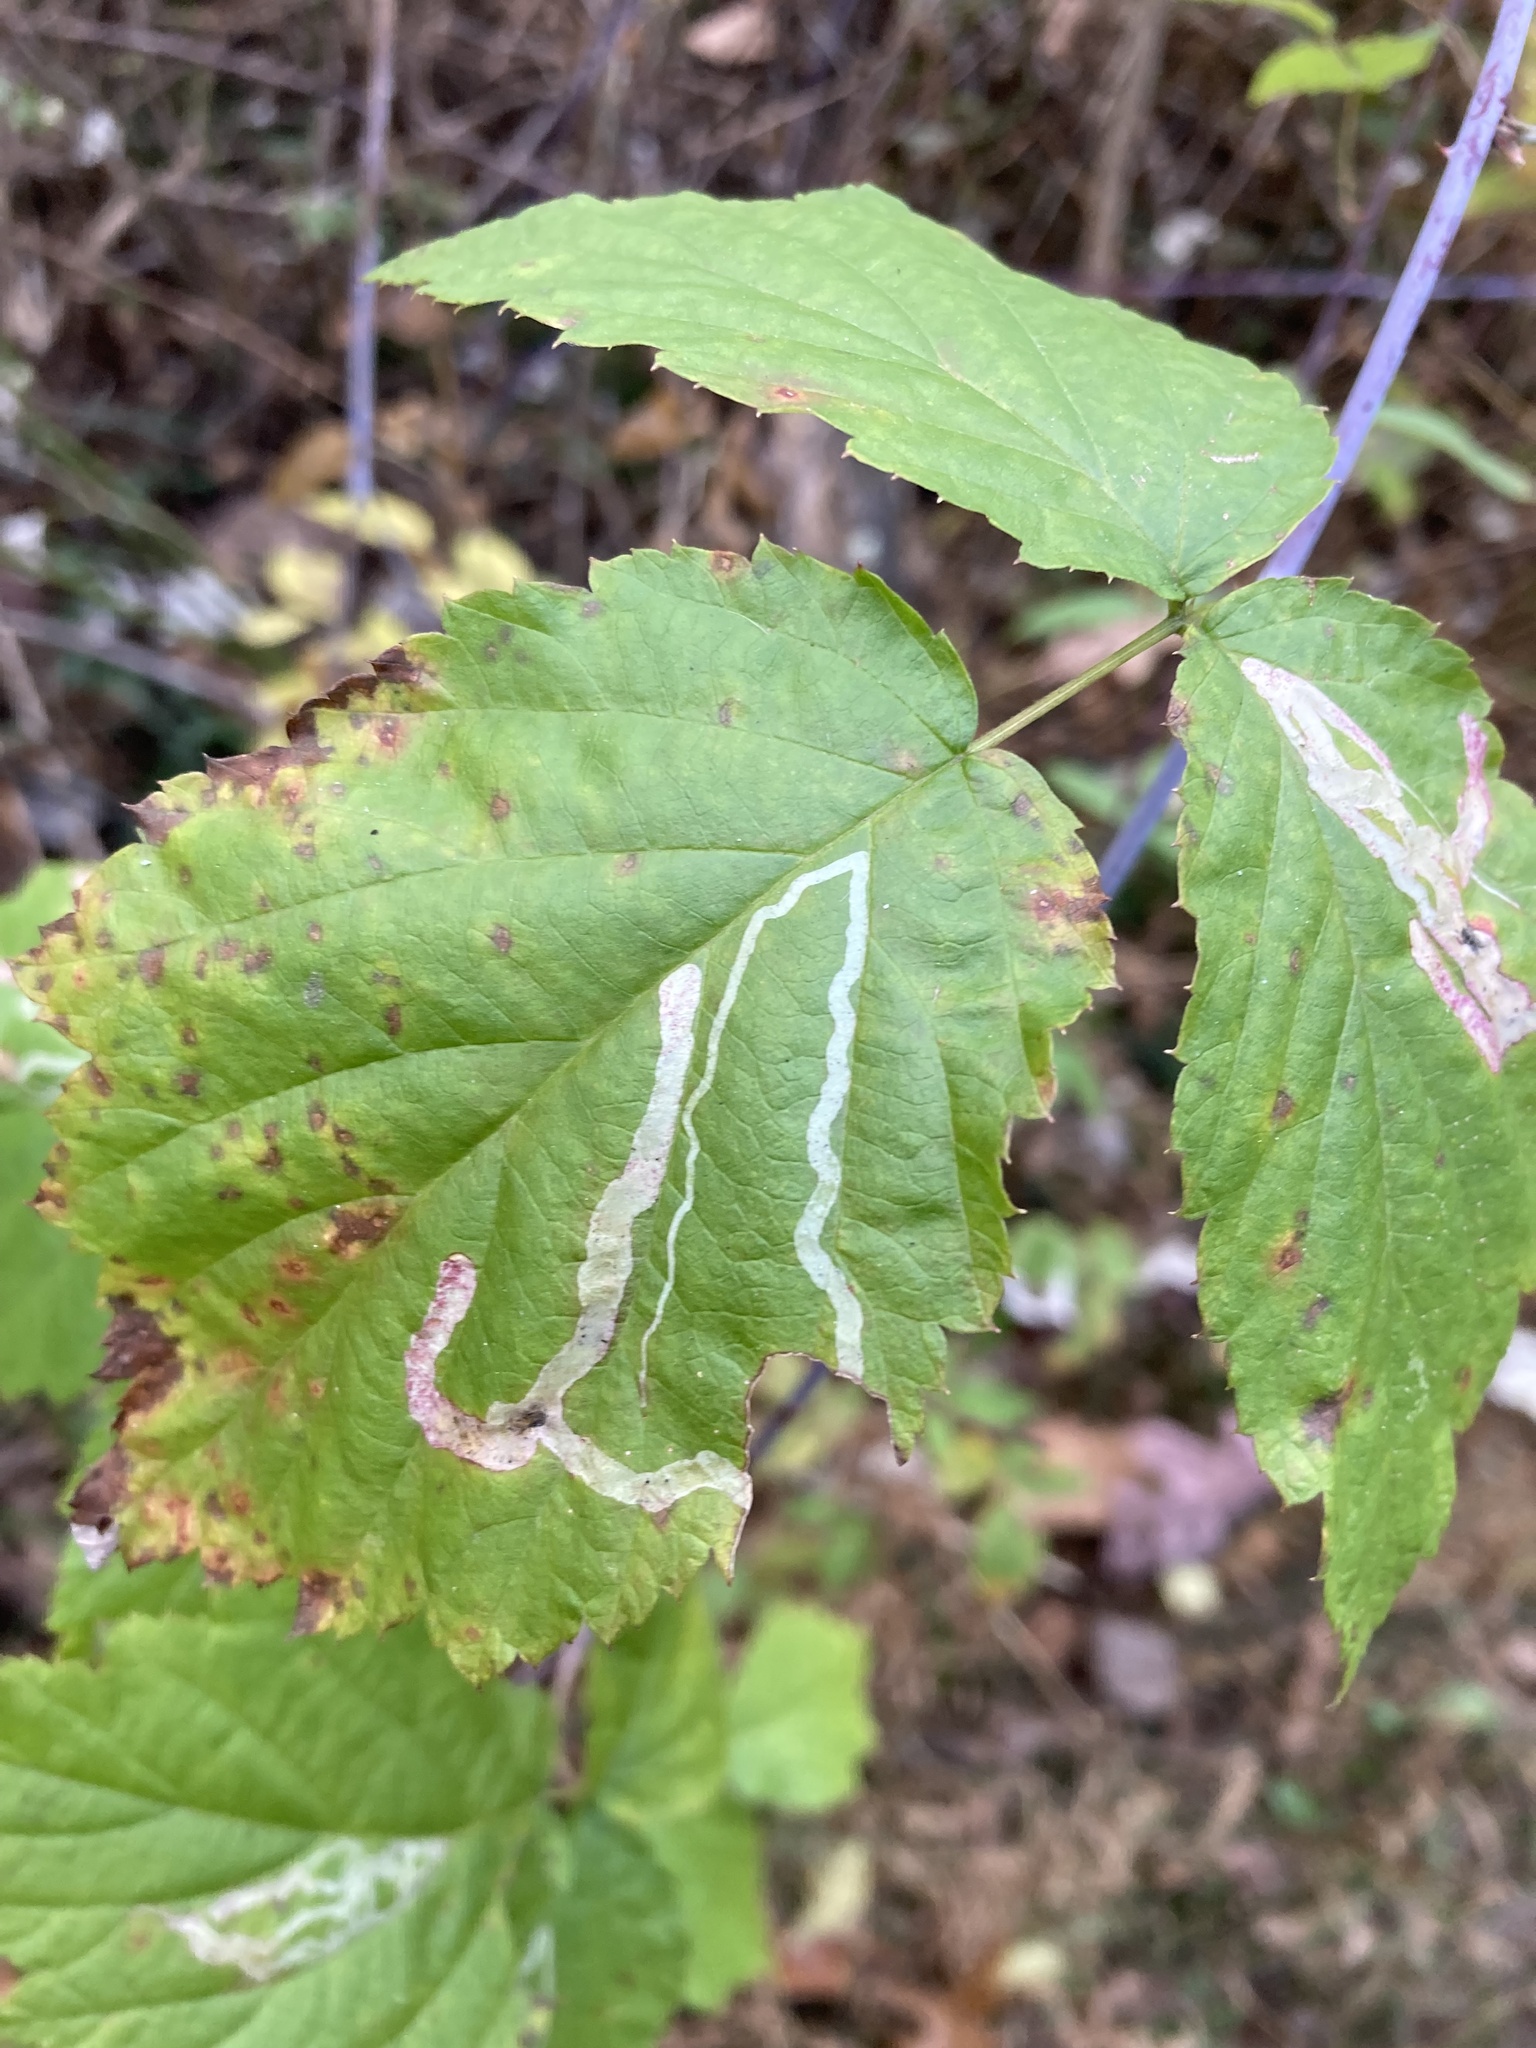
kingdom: Animalia
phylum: Arthropoda
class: Insecta
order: Diptera
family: Agromyzidae
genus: Agromyza
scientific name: Agromyza vockerothi
